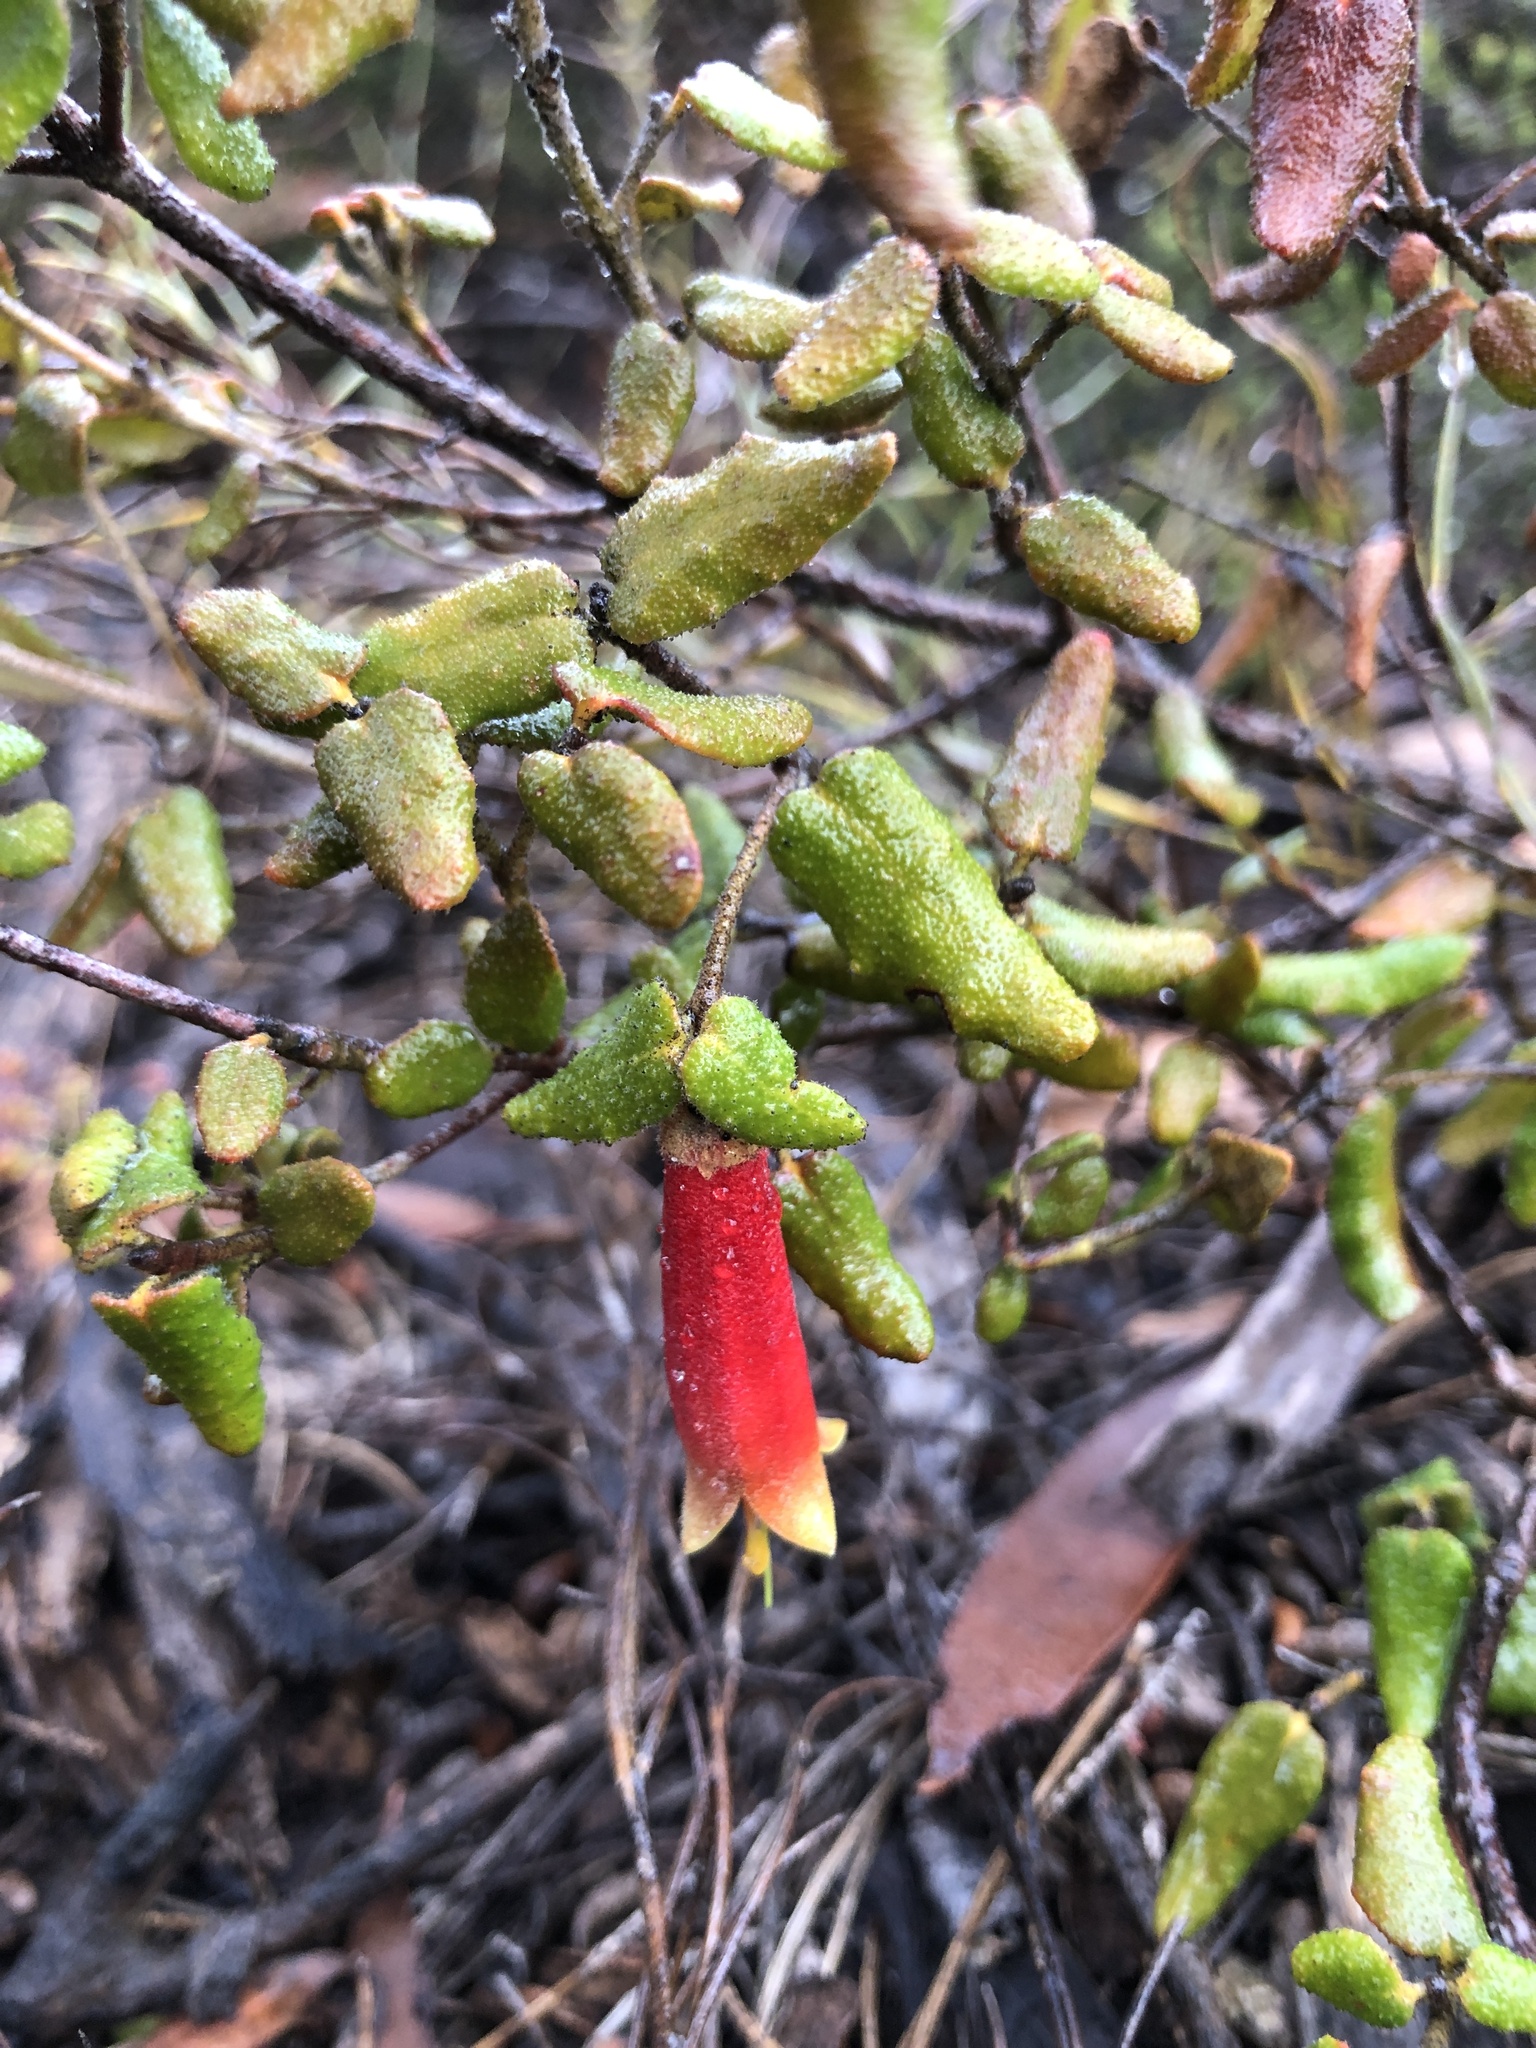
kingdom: Plantae
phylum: Tracheophyta
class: Magnoliopsida
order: Sapindales
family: Rutaceae
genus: Correa
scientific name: Correa reflexa
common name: Common correa
